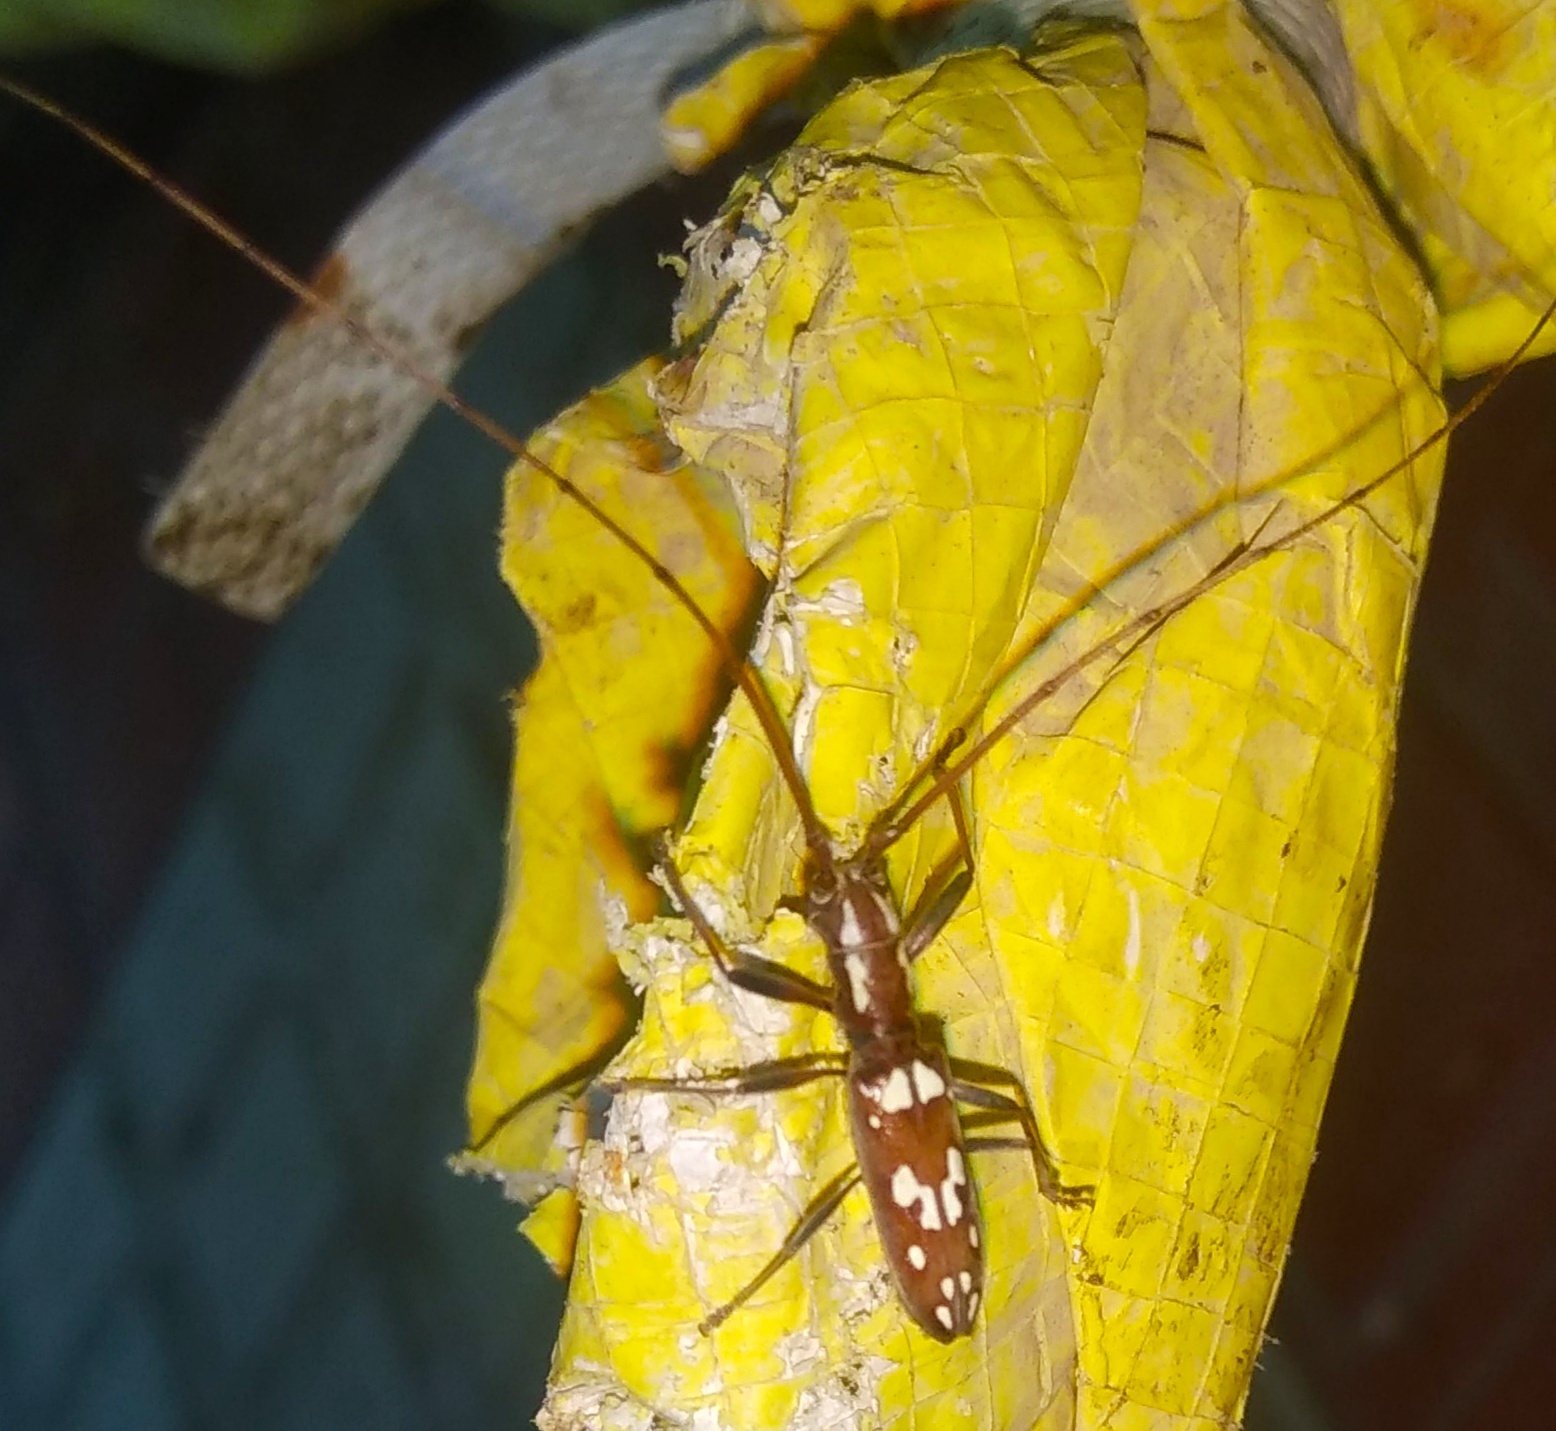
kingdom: Animalia
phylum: Arthropoda
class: Insecta
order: Coleoptera
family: Cerambycidae
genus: Olenecamptus
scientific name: Olenecamptus anogeissi
